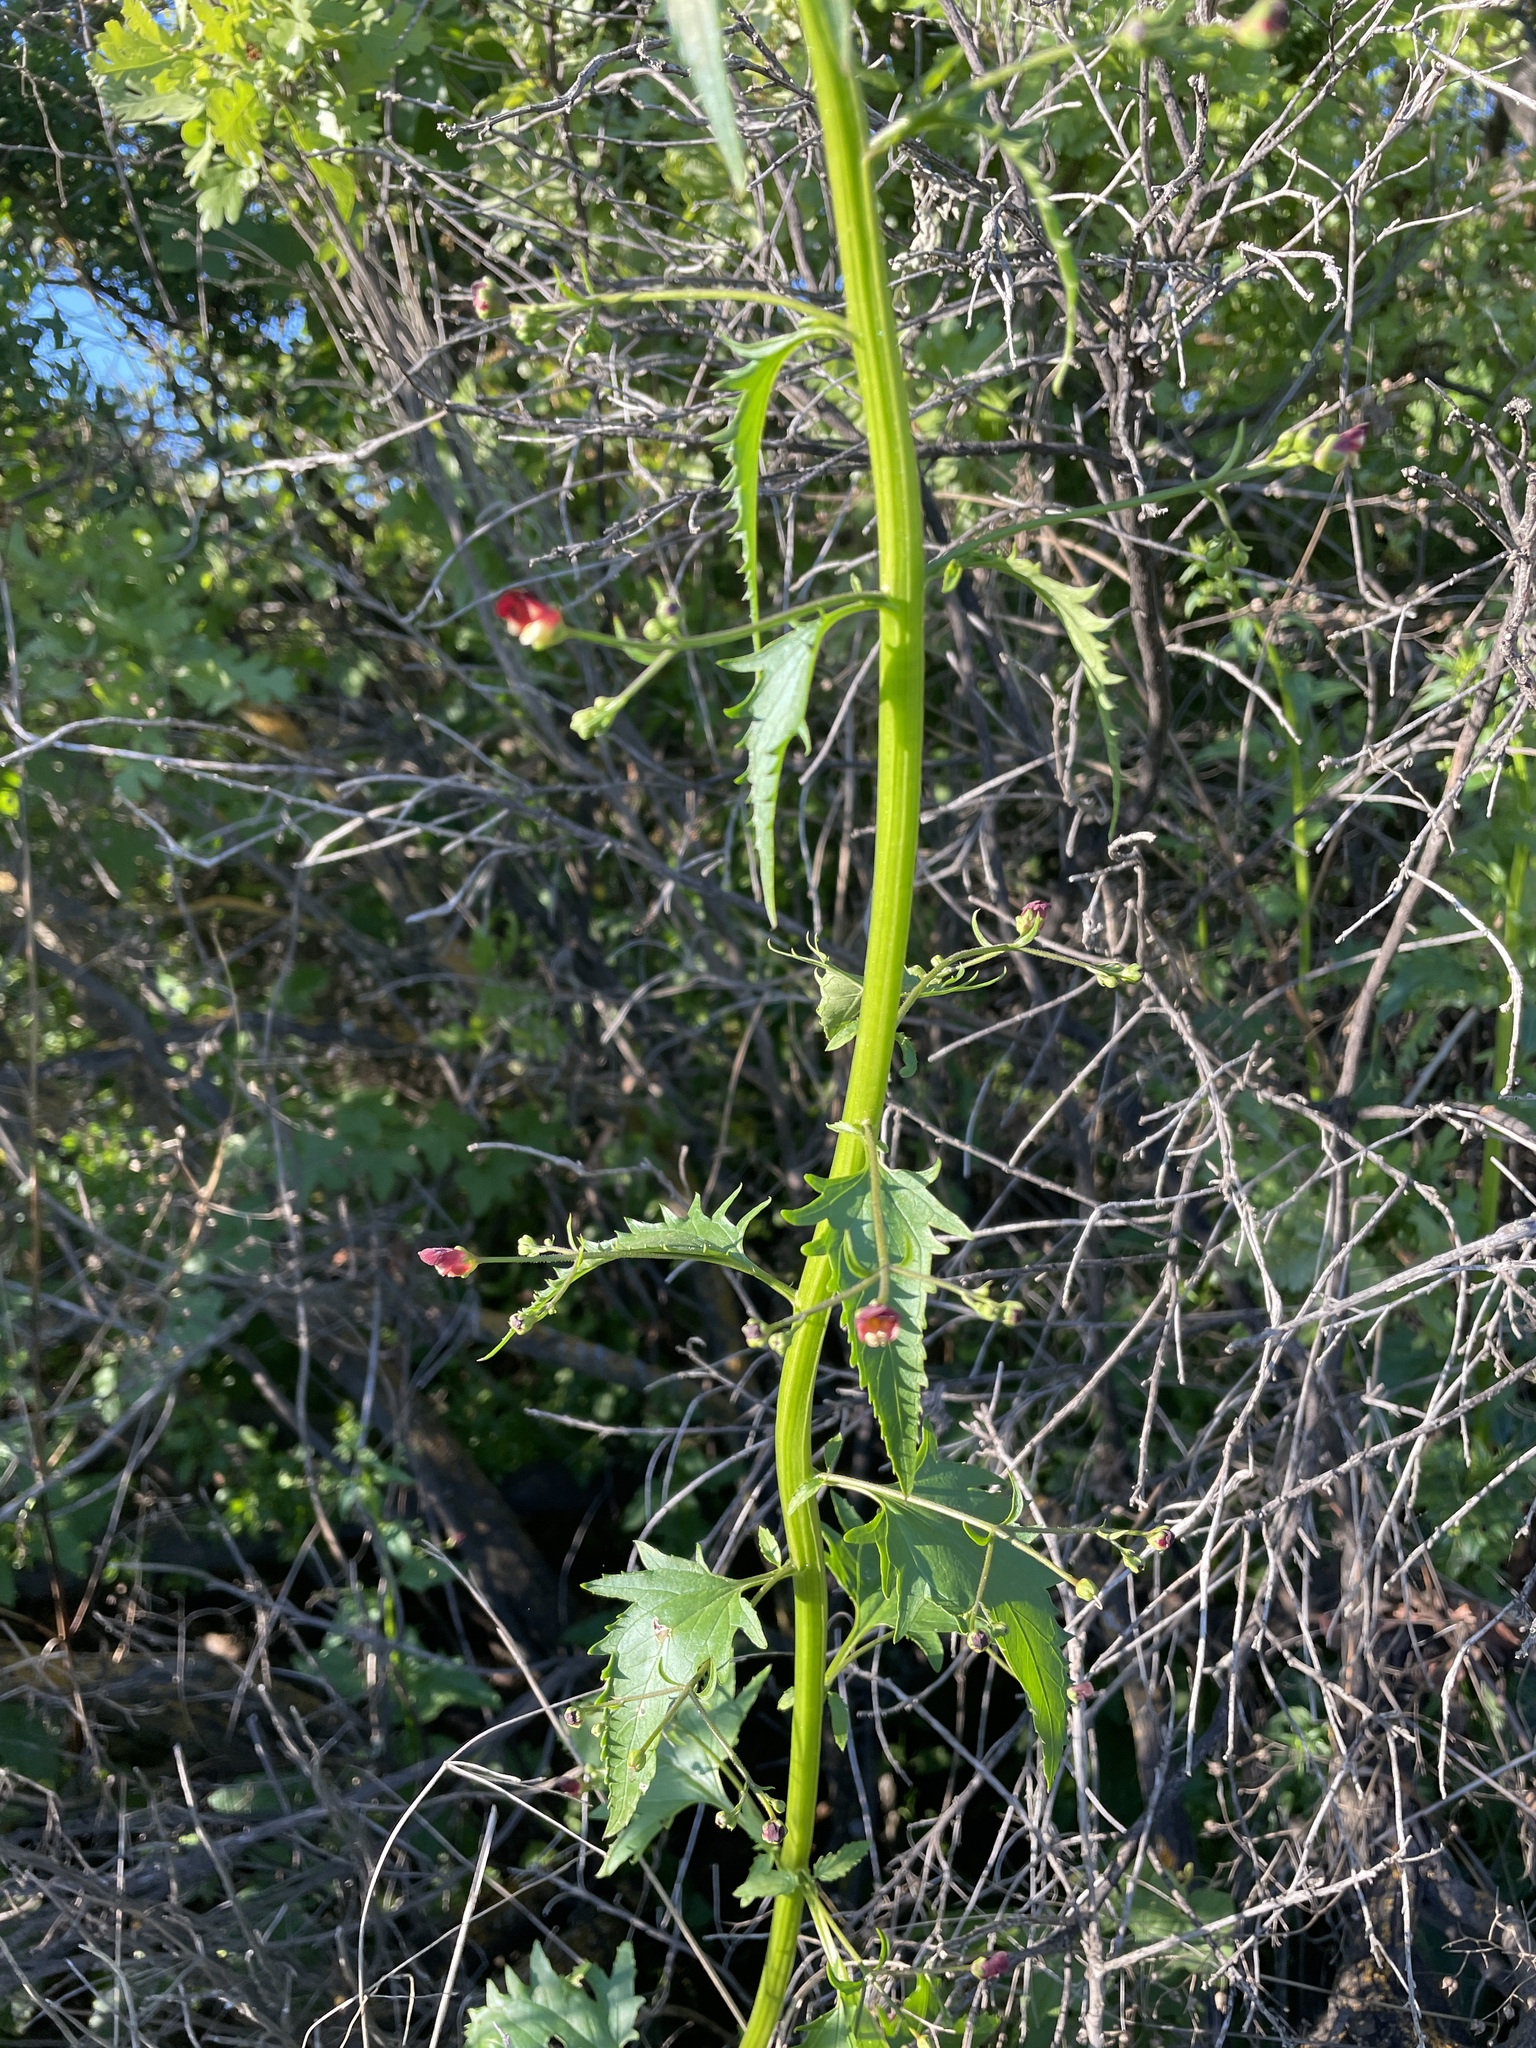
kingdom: Plantae
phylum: Tracheophyta
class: Magnoliopsida
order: Lamiales
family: Scrophulariaceae
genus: Scrophularia
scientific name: Scrophularia californica
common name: California figwort
